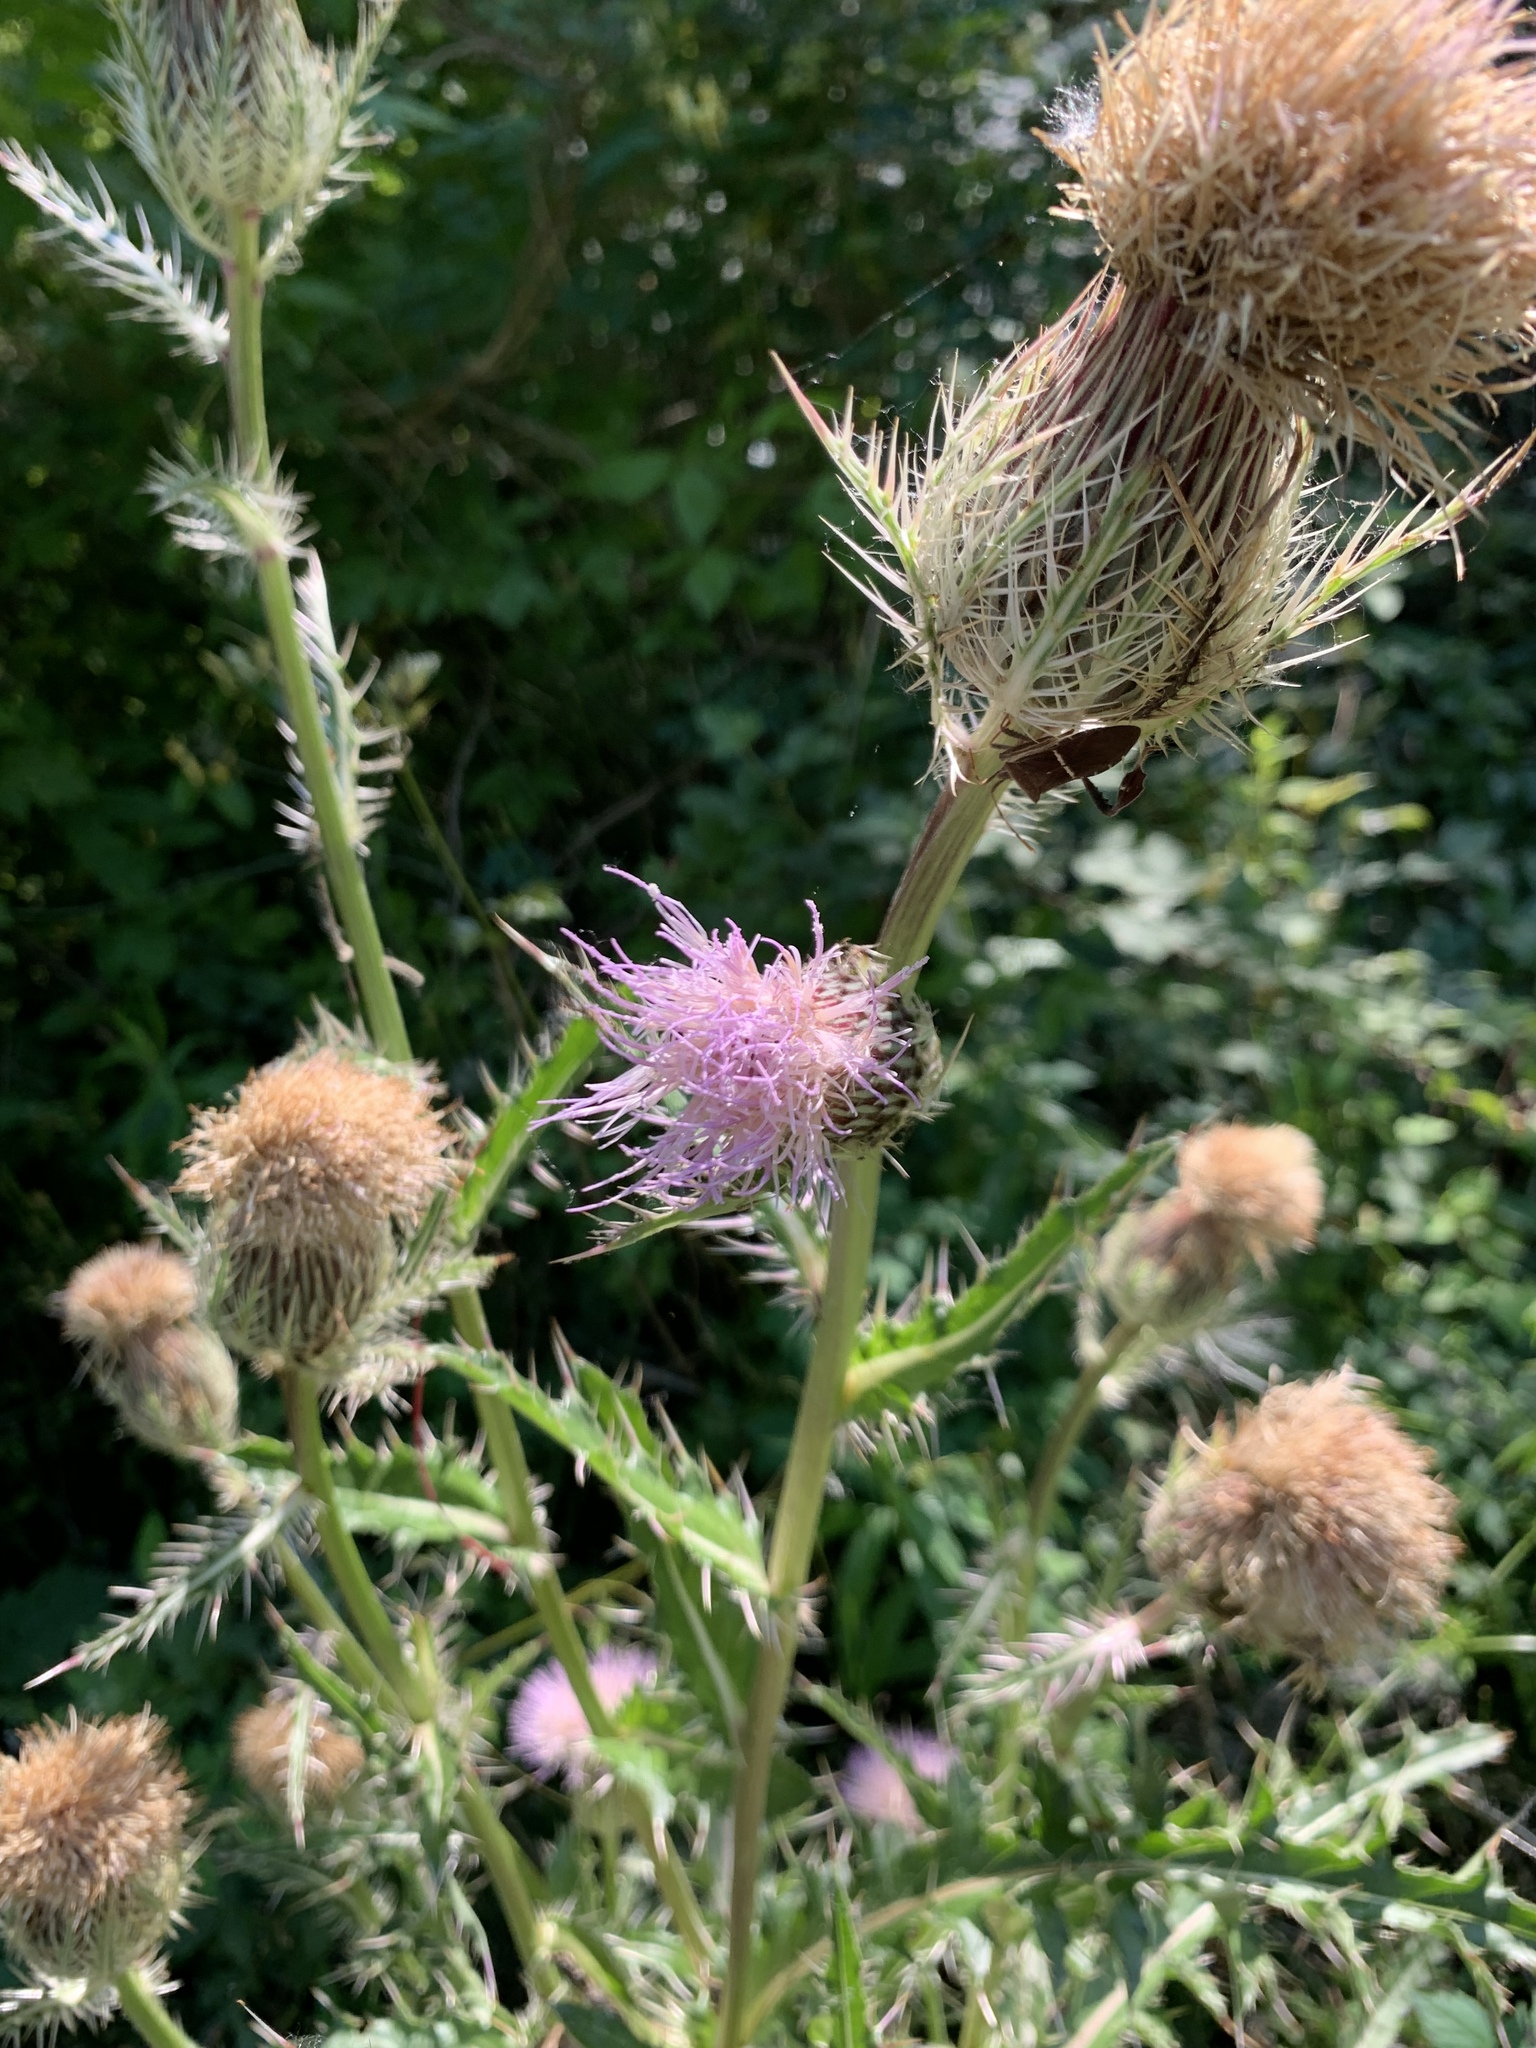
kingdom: Plantae
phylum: Tracheophyta
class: Magnoliopsida
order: Asterales
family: Asteraceae
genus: Cirsium
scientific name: Cirsium horridulum
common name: Bristly thistle
